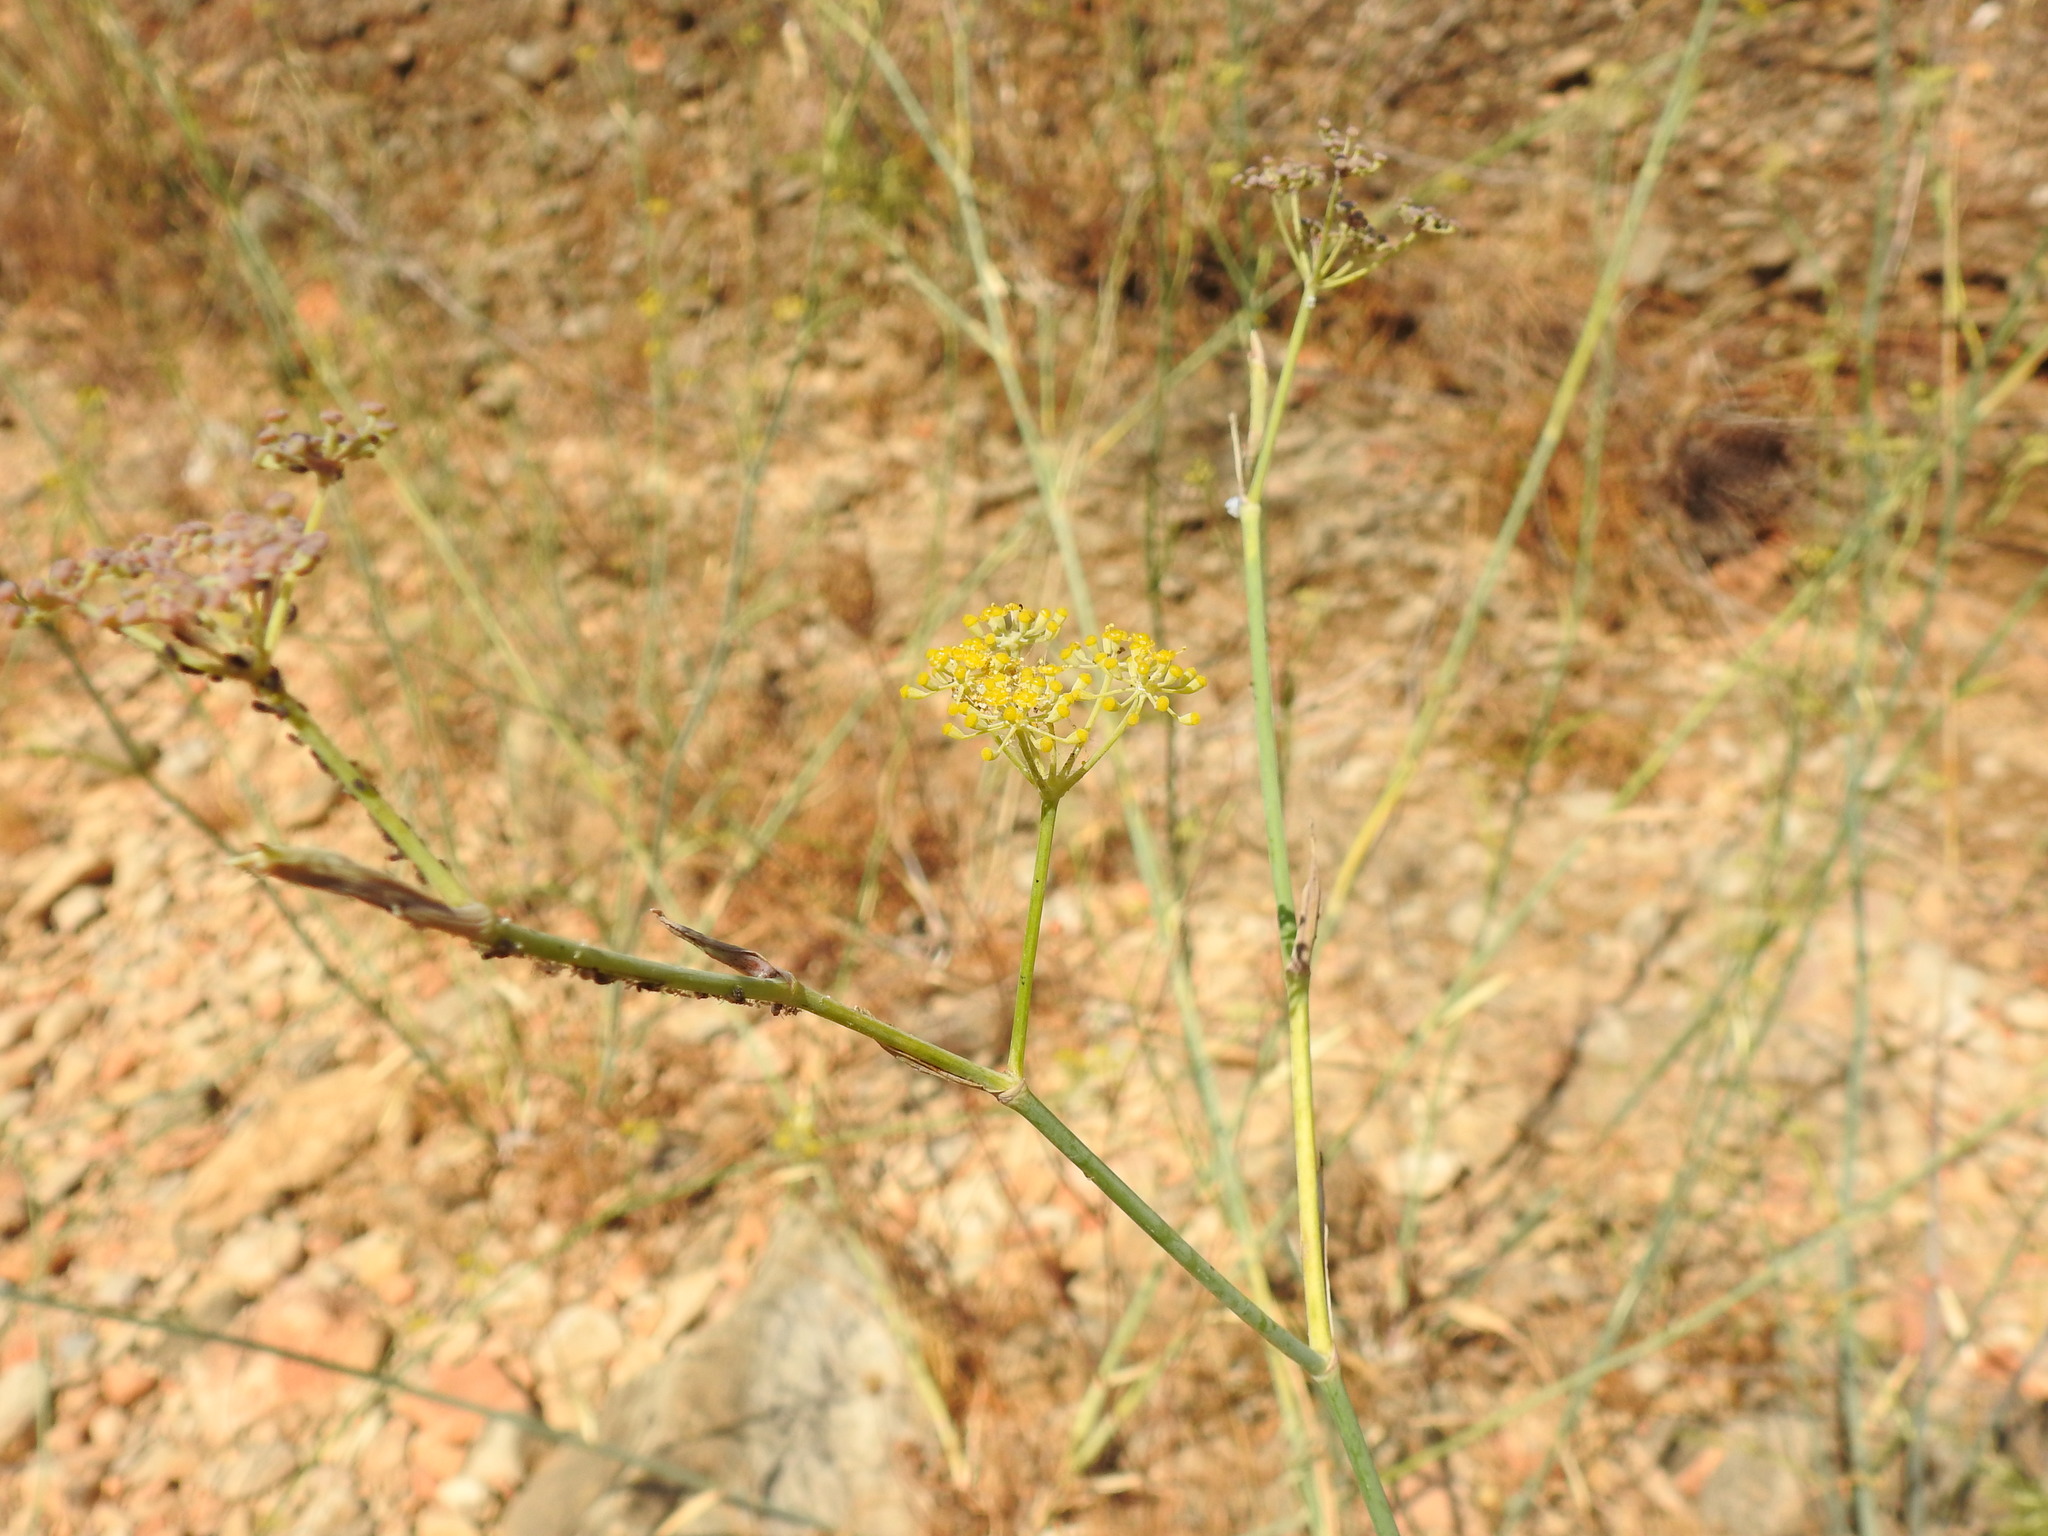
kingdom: Plantae
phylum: Tracheophyta
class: Magnoliopsida
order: Apiales
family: Apiaceae
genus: Foeniculum
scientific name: Foeniculum vulgare
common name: Fennel
